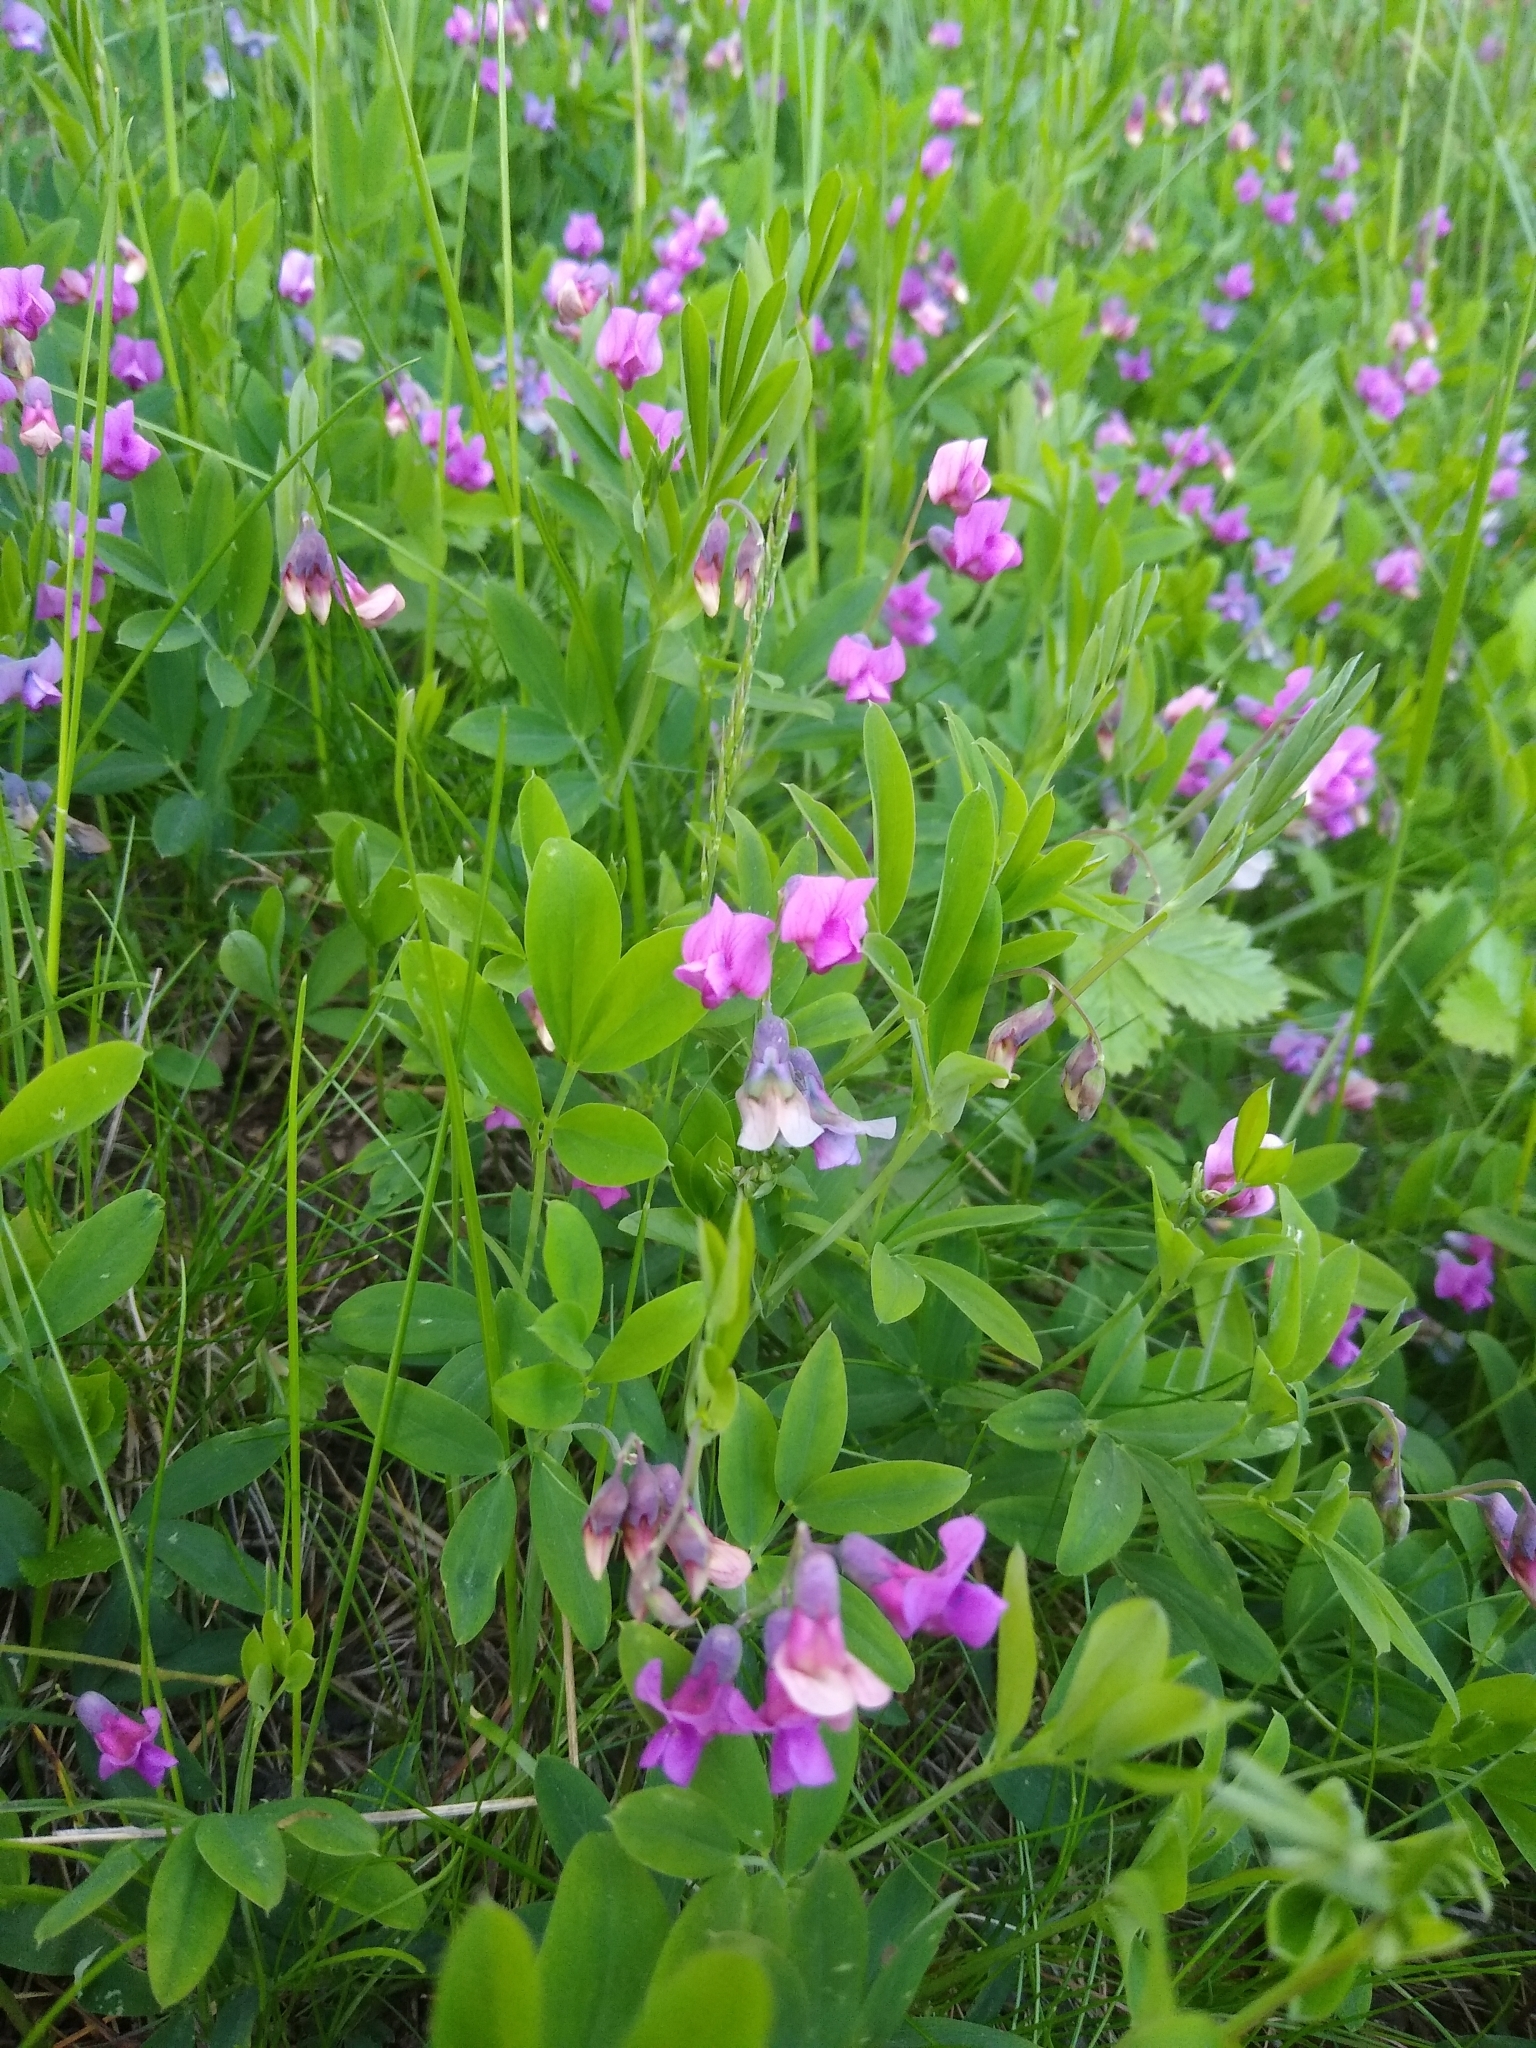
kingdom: Plantae
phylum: Tracheophyta
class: Magnoliopsida
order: Fabales
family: Fabaceae
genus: Lathyrus
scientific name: Lathyrus linifolius
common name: Bitter-vetch
